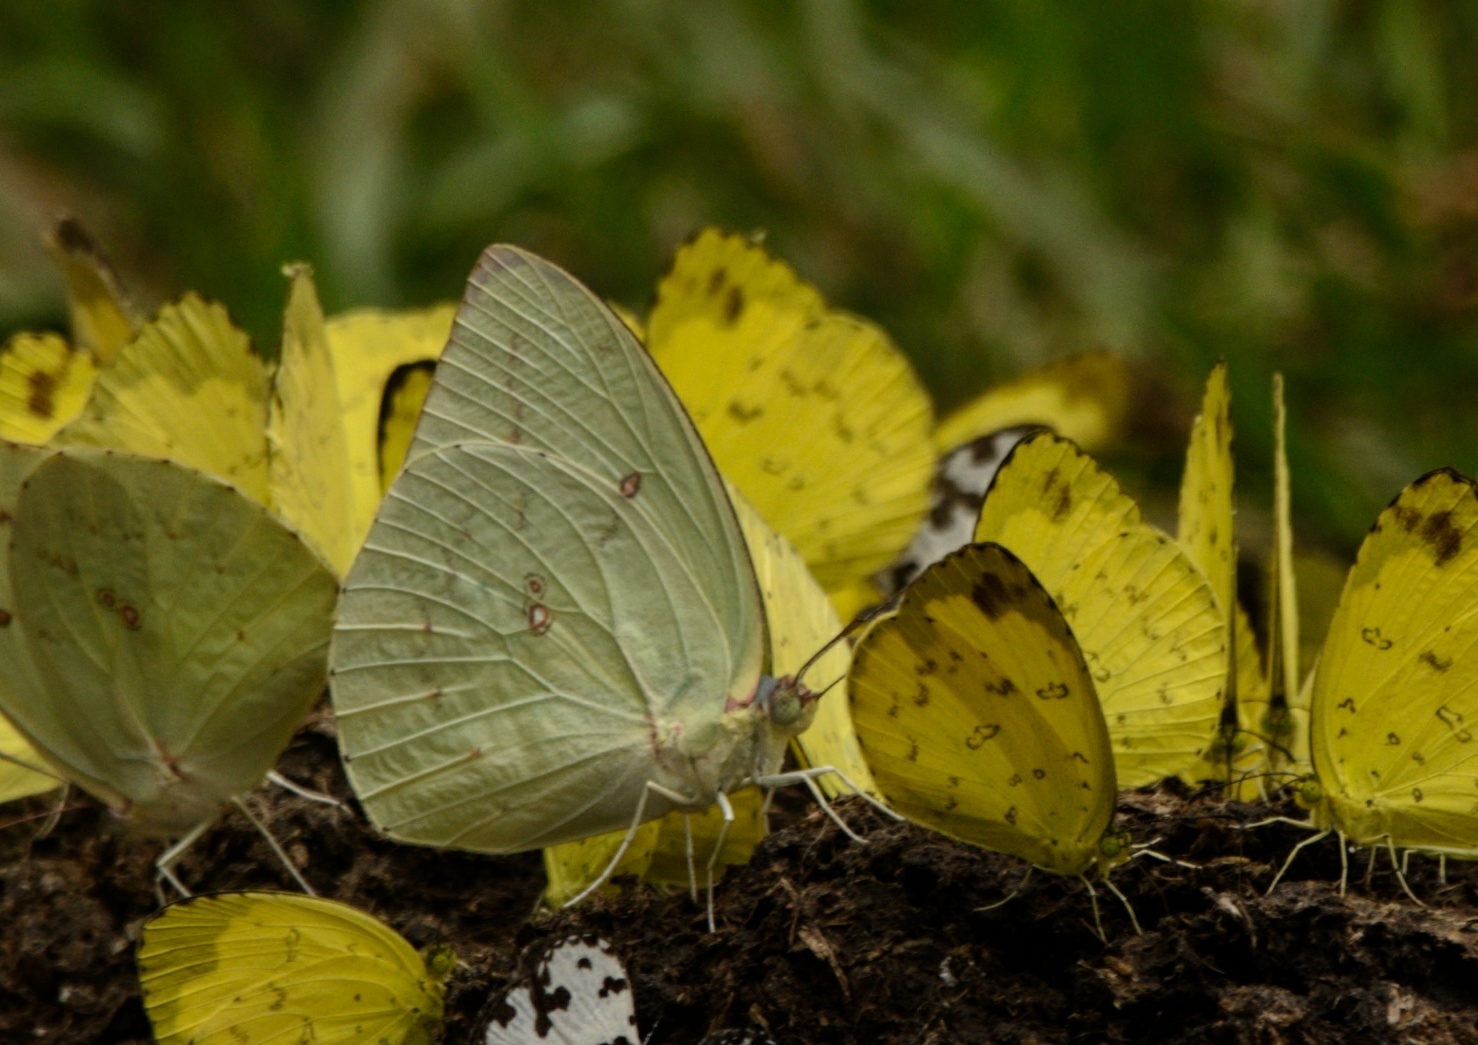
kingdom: Animalia
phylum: Arthropoda
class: Insecta
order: Lepidoptera
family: Pieridae
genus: Catopsilia
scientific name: Catopsilia pomona
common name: Common emigrant
